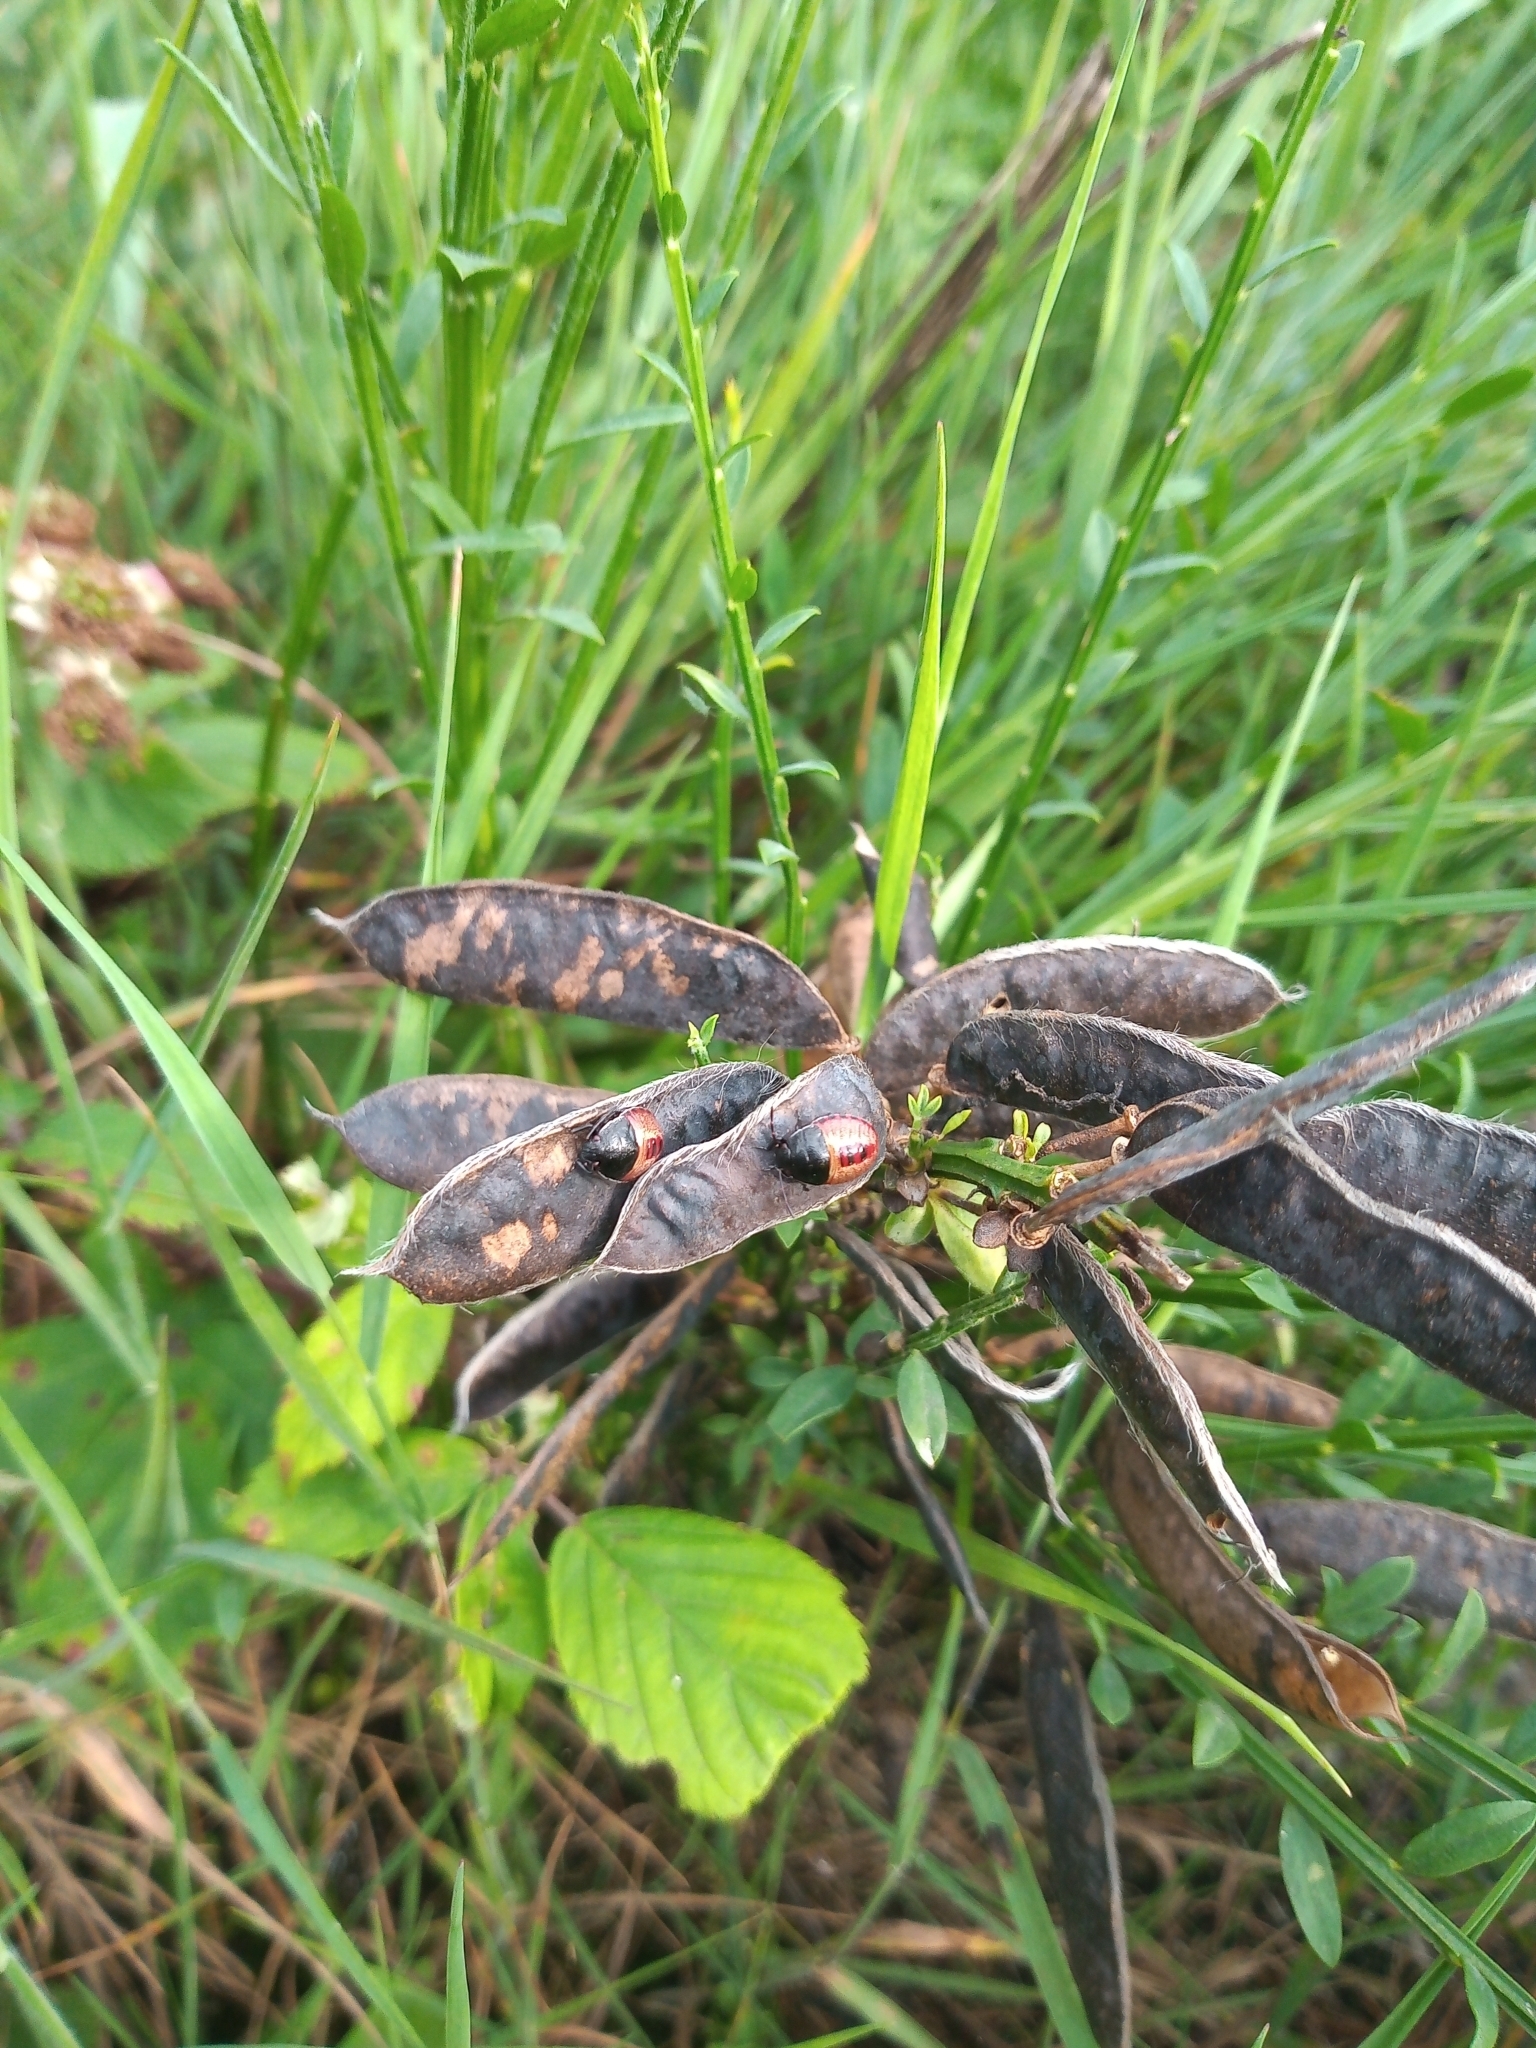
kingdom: Plantae
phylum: Tracheophyta
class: Magnoliopsida
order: Fabales
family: Fabaceae
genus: Cytisus
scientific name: Cytisus scoparius
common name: Scotch broom
